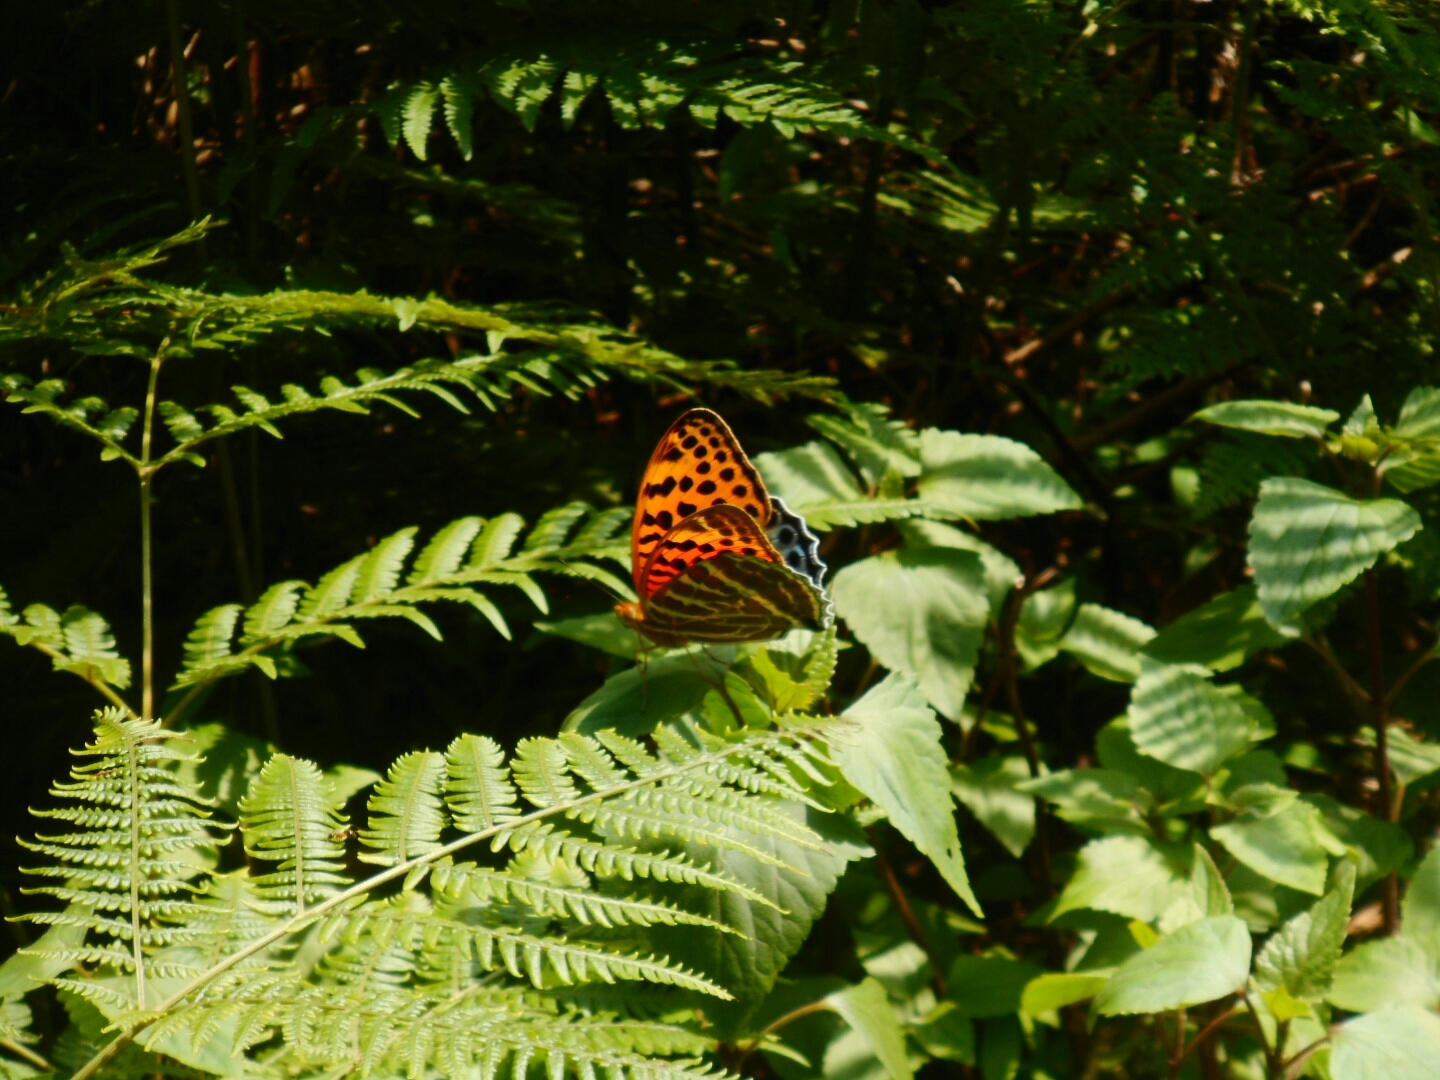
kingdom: Animalia
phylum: Arthropoda
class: Insecta
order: Lepidoptera
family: Nymphalidae
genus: Childrena
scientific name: Childrena childreni
